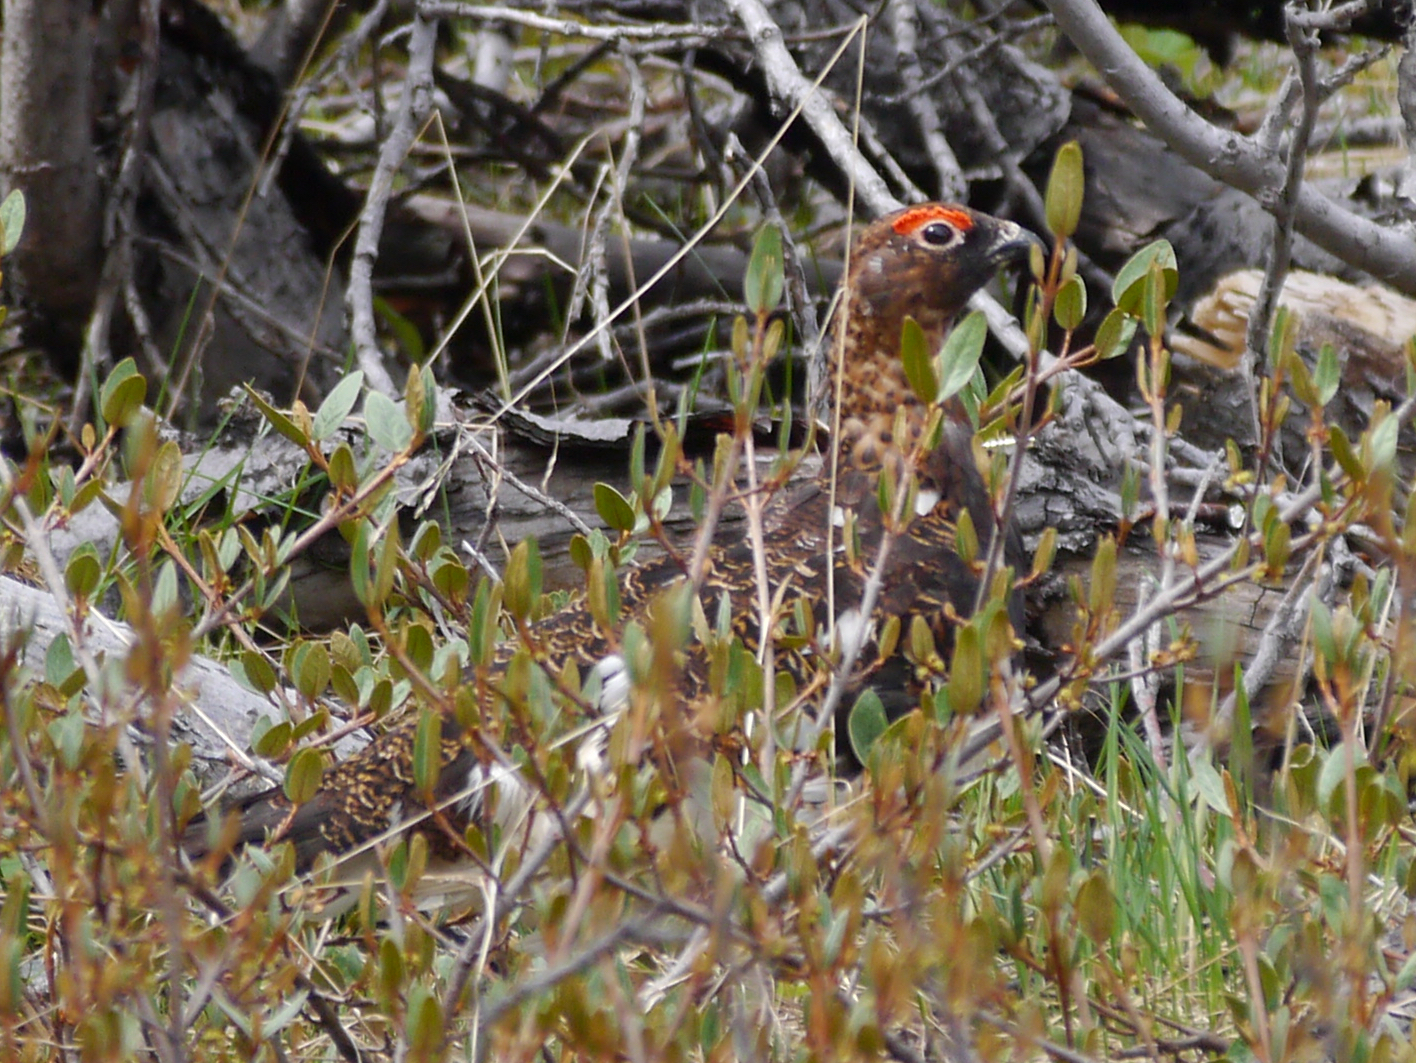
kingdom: Animalia
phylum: Chordata
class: Aves
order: Galliformes
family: Phasianidae
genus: Lagopus
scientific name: Lagopus lagopus
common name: Willow ptarmigan
